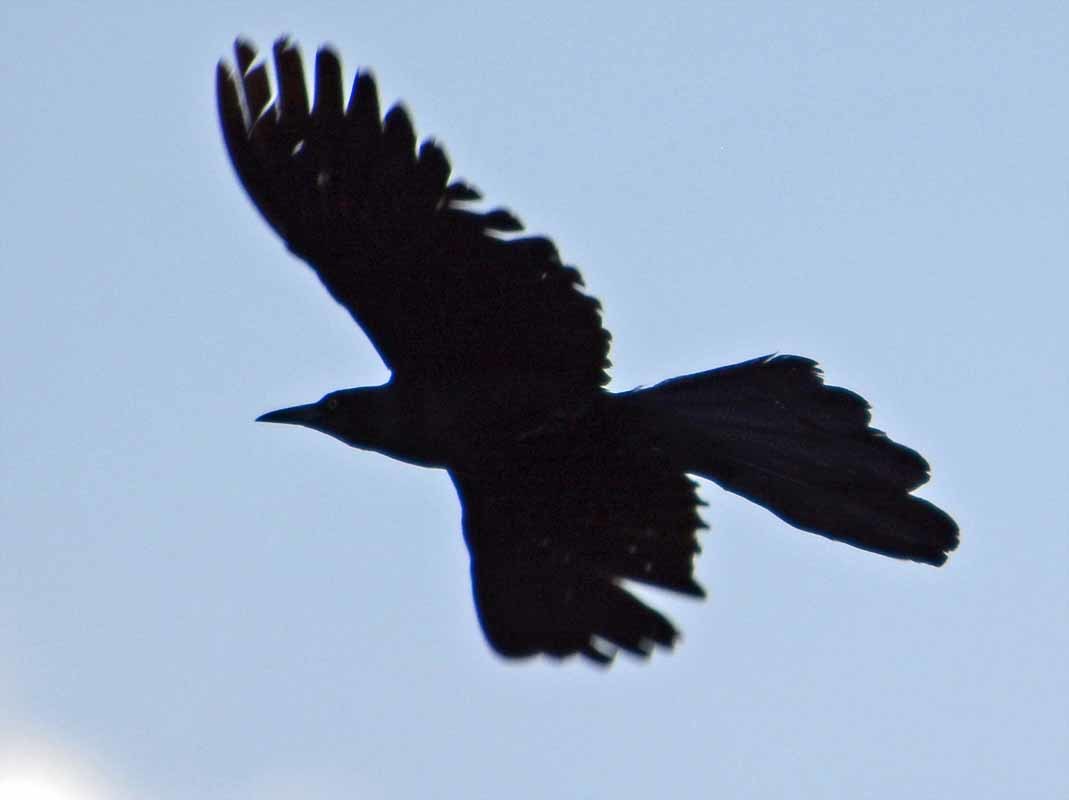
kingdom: Animalia
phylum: Chordata
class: Aves
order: Passeriformes
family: Icteridae
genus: Quiscalus
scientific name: Quiscalus mexicanus
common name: Great-tailed grackle
